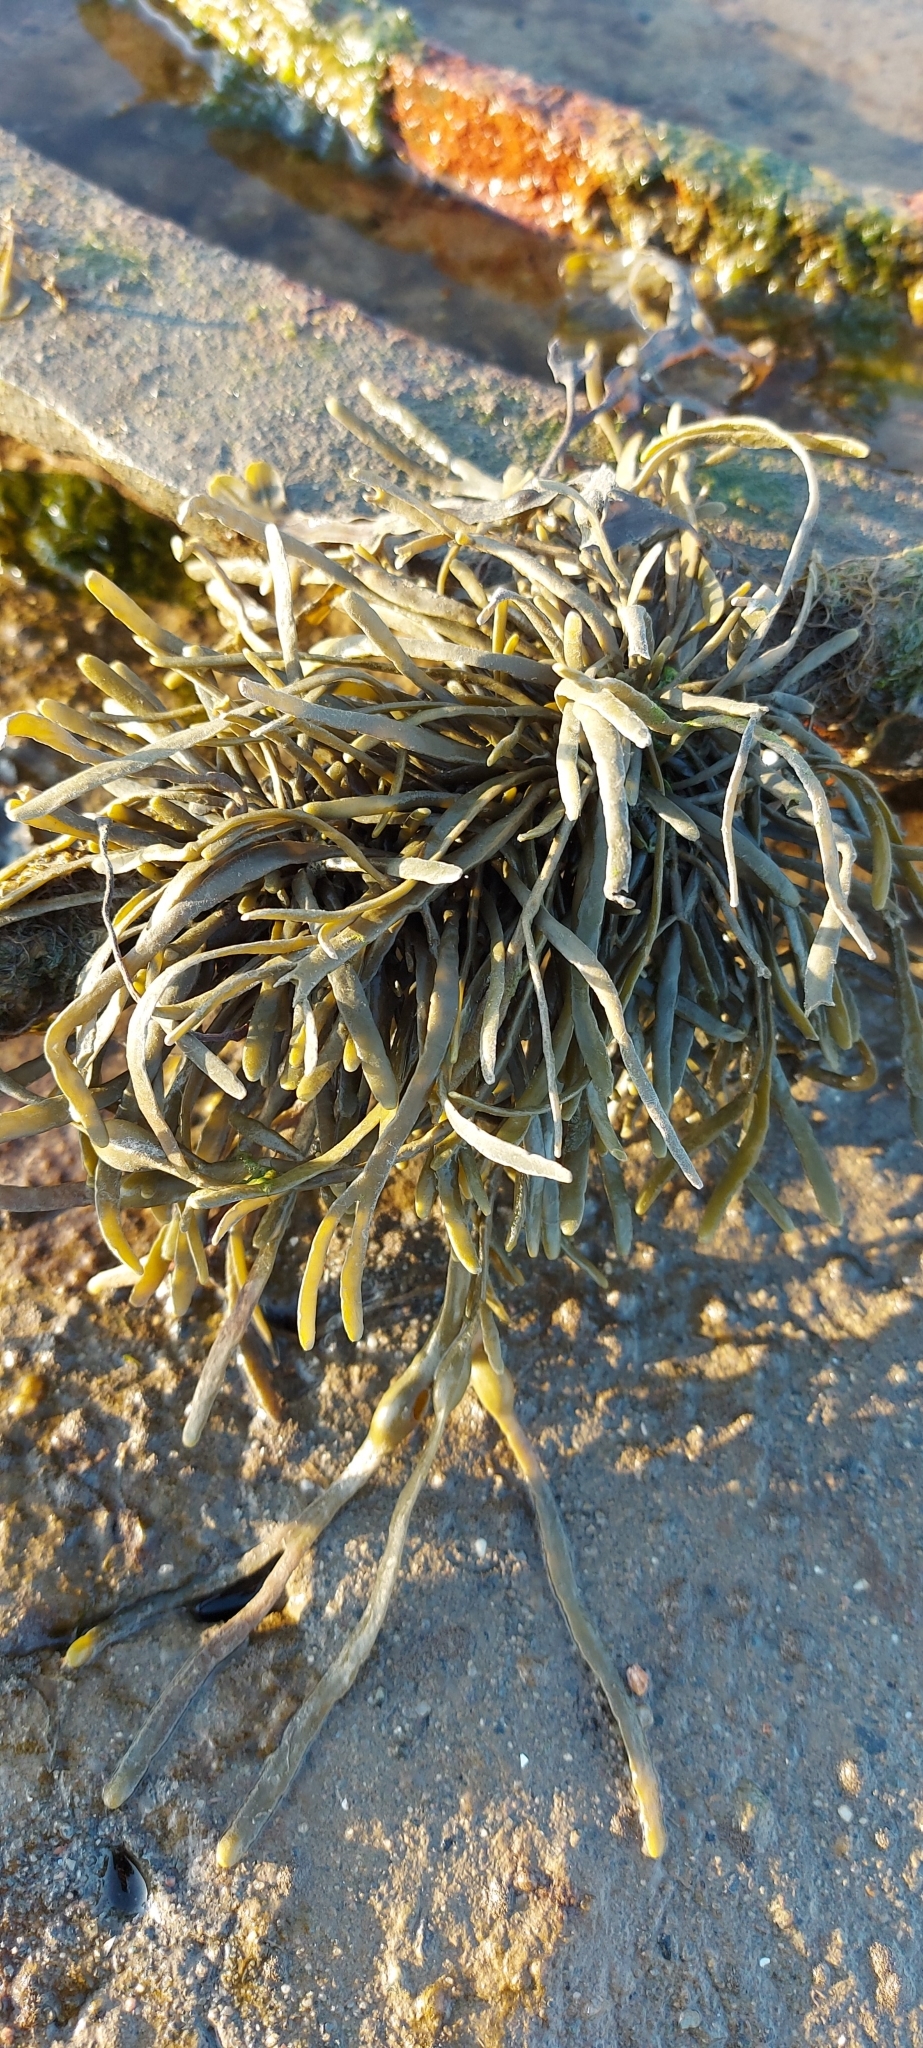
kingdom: Chromista
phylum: Ochrophyta
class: Phaeophyceae
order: Fucales
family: Fucaceae
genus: Ascophyllum
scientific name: Ascophyllum nodosum
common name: Knotted wrack
